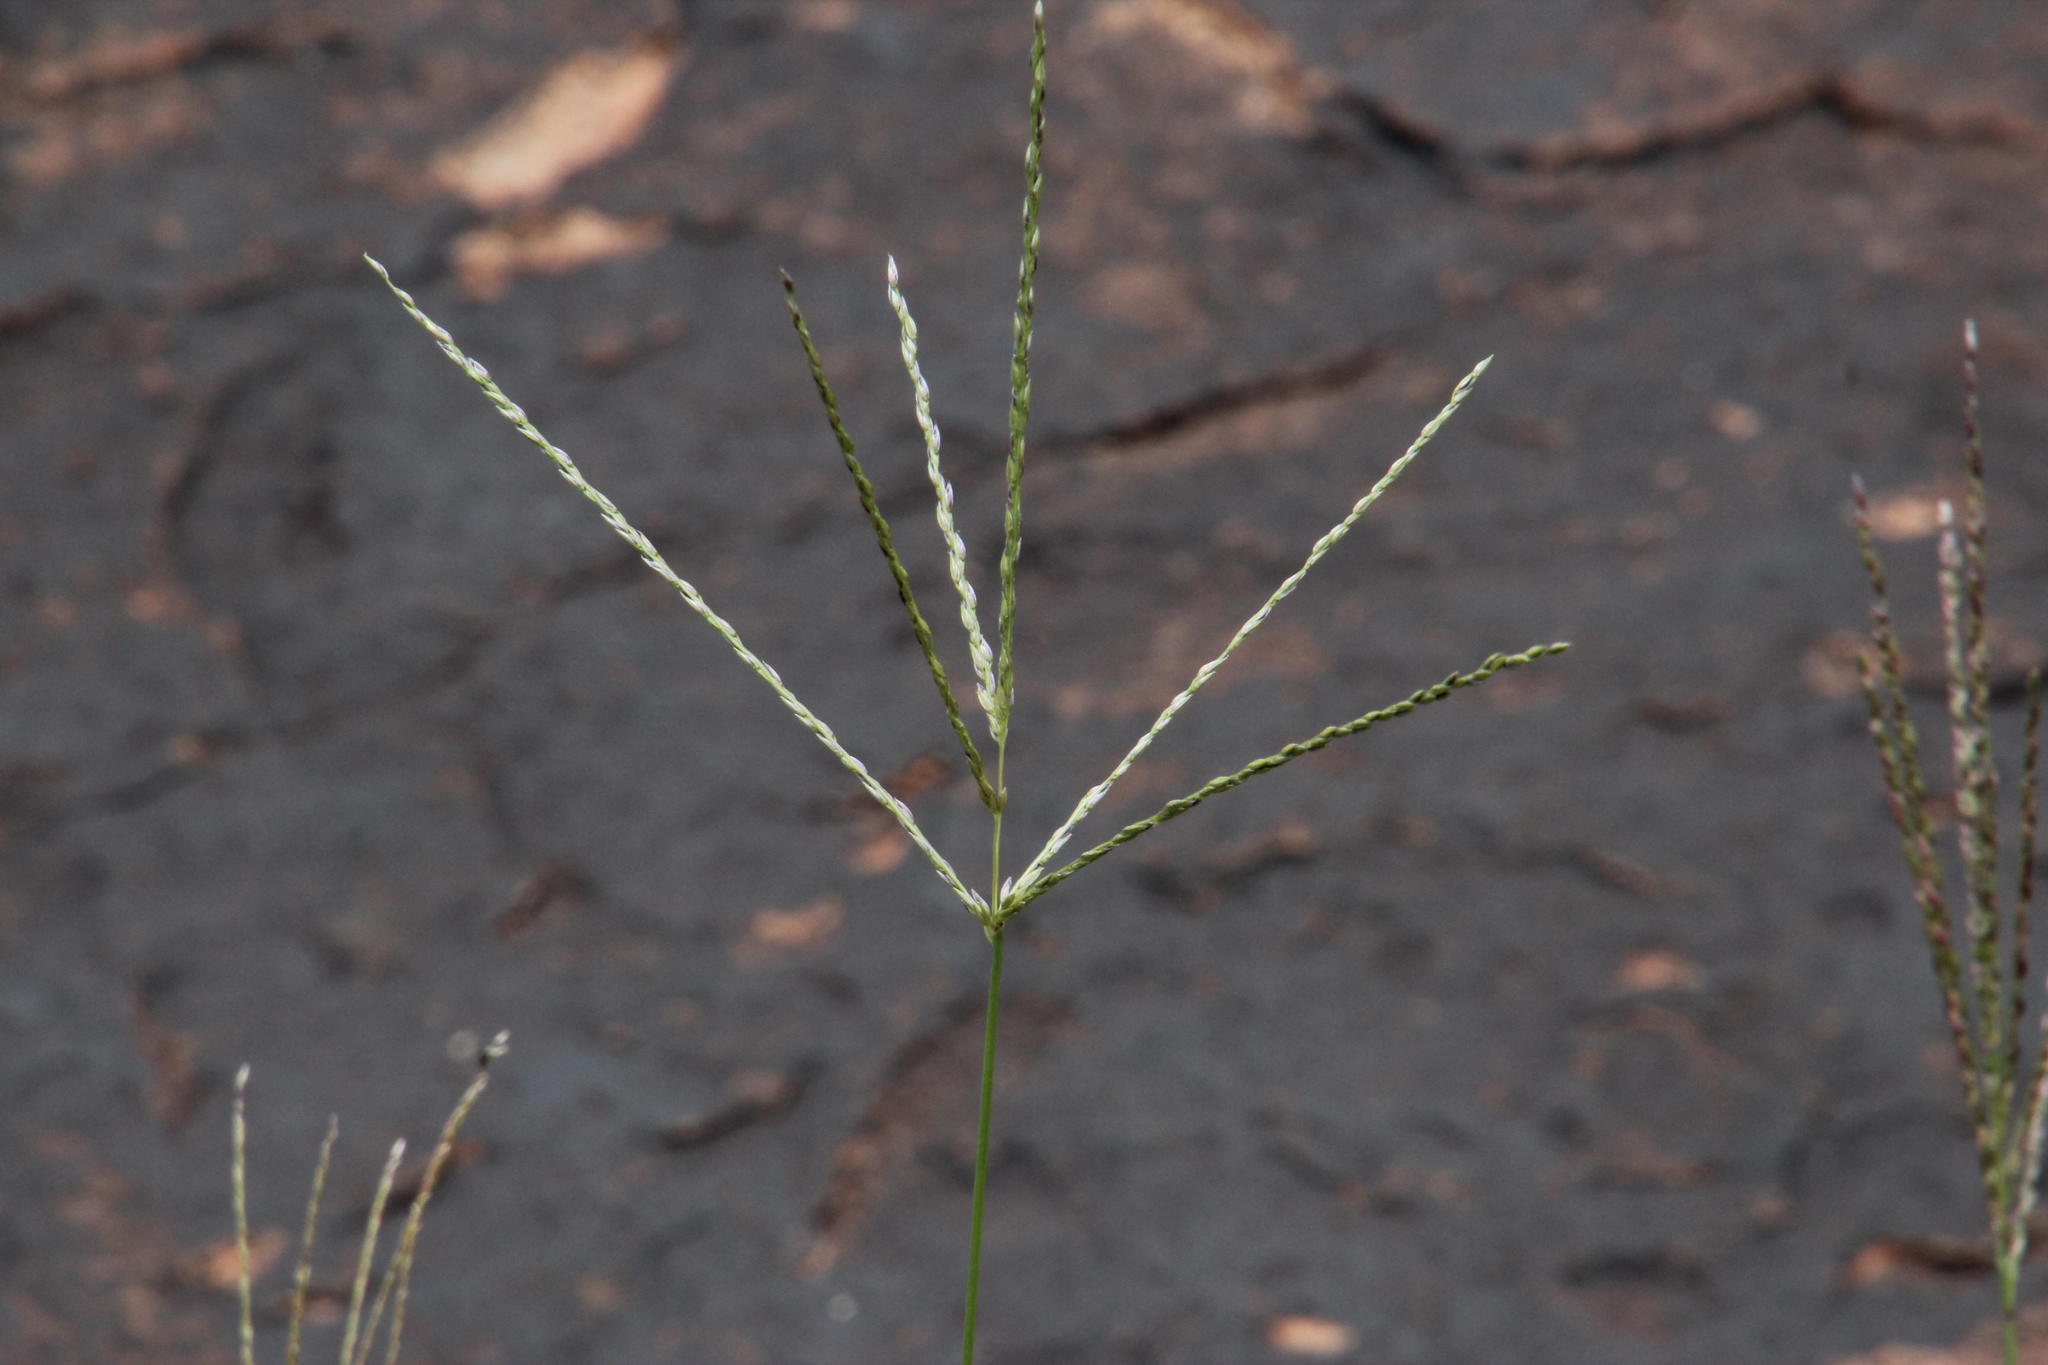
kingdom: Plantae
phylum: Tracheophyta
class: Liliopsida
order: Poales
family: Poaceae
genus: Digitaria
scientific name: Digitaria eriantha
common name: Digitgrass
